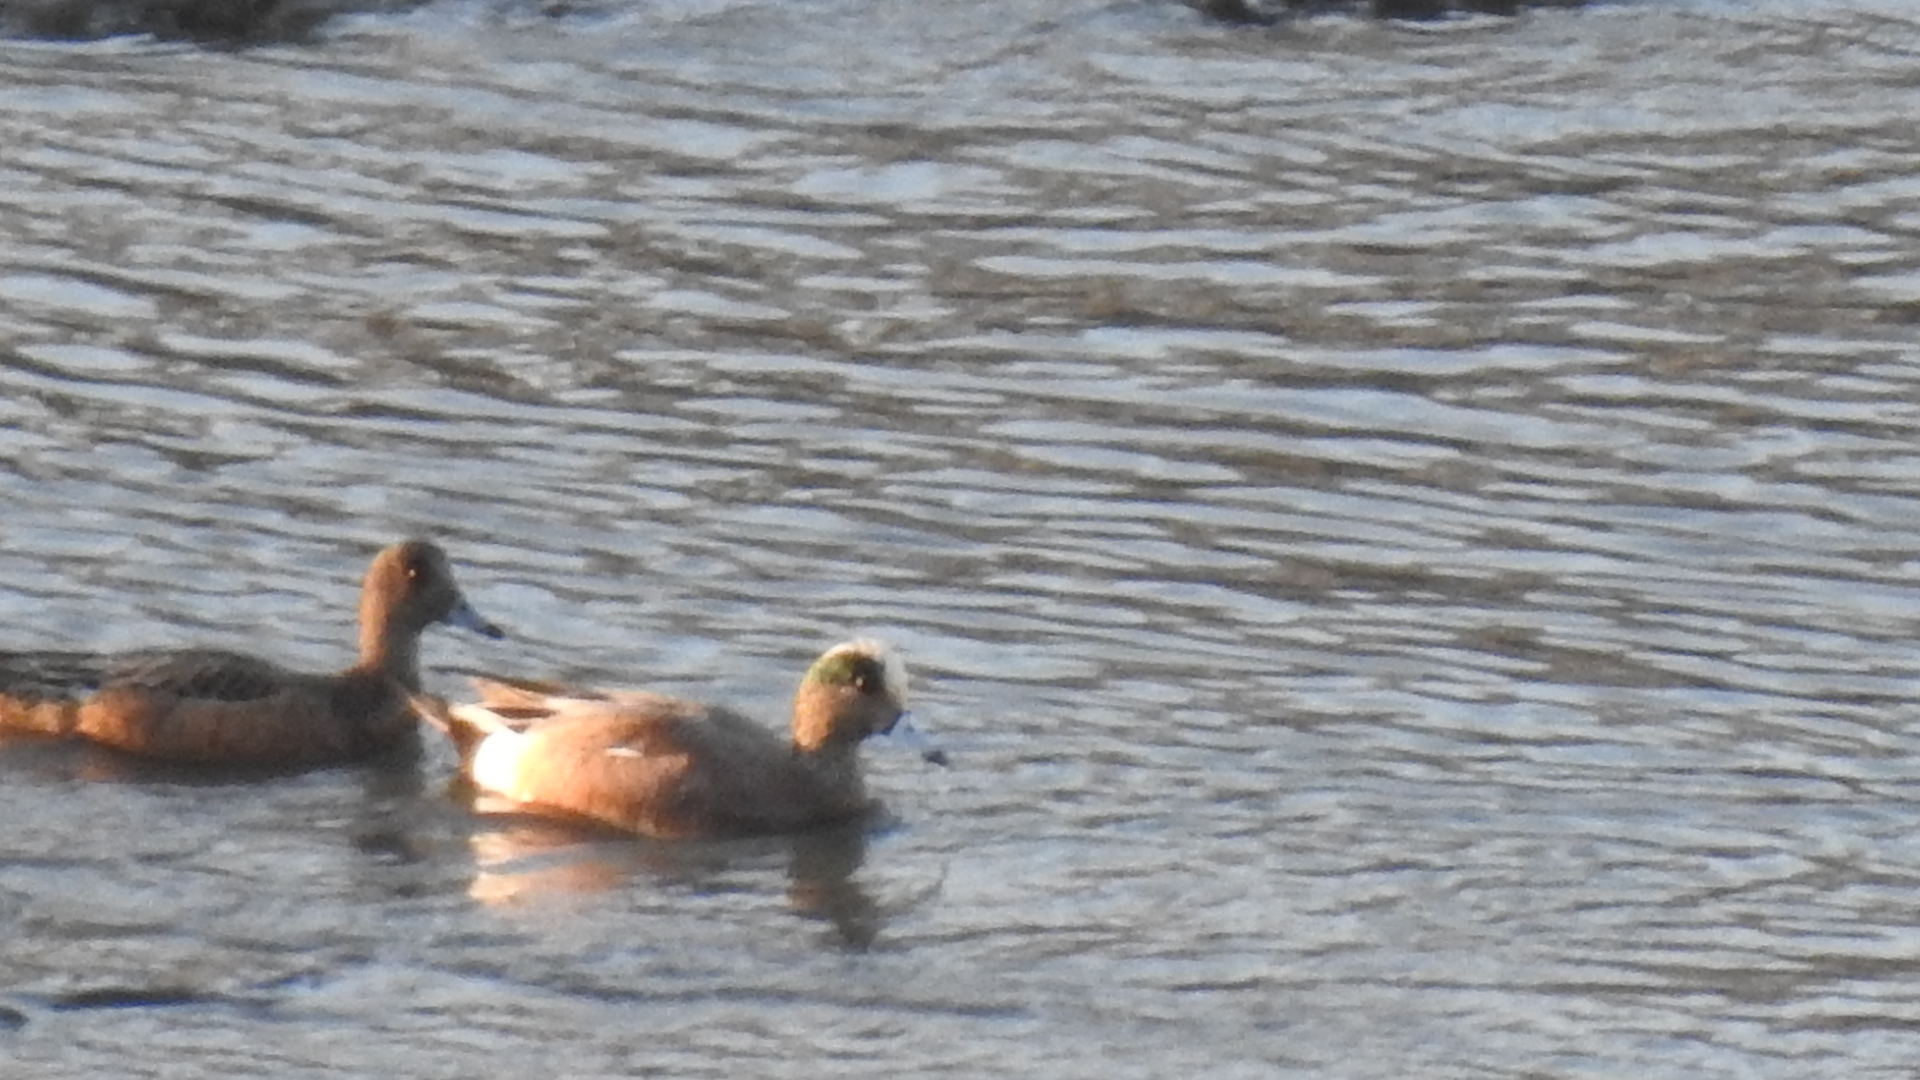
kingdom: Animalia
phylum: Chordata
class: Aves
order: Anseriformes
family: Anatidae
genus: Mareca
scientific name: Mareca americana
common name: American wigeon
